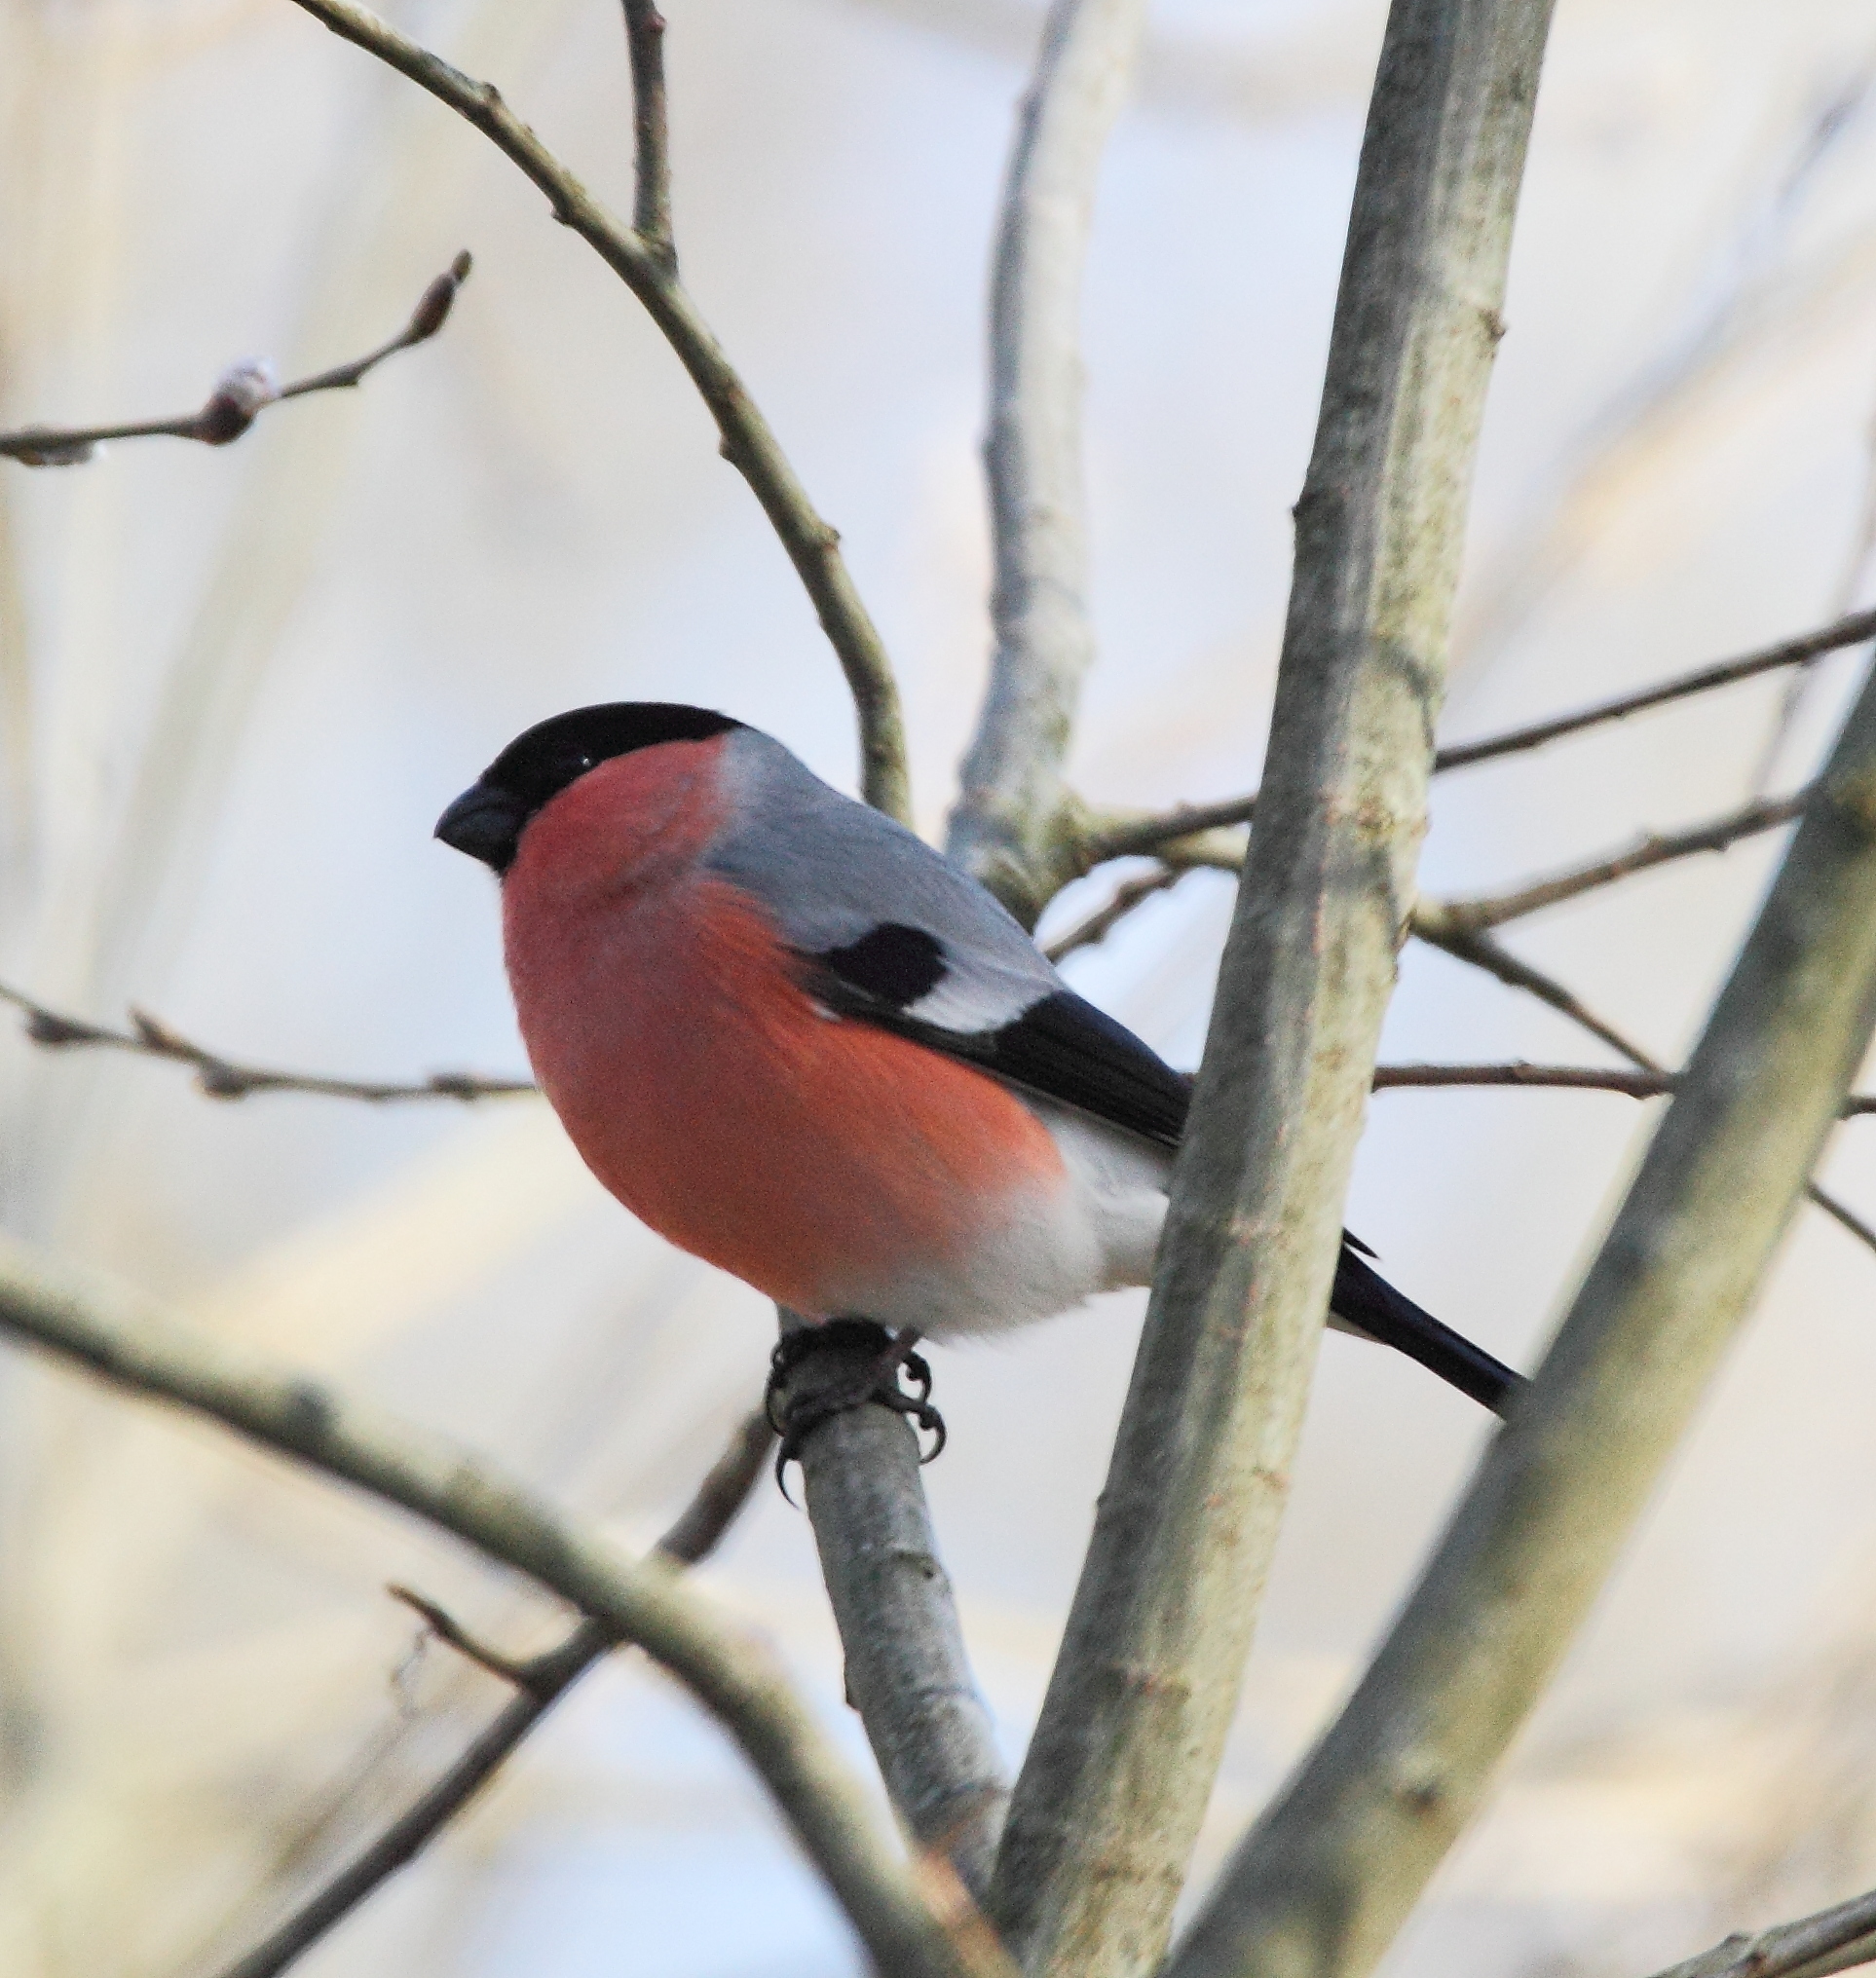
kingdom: Animalia
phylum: Chordata
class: Aves
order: Passeriformes
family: Fringillidae
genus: Pyrrhula
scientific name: Pyrrhula pyrrhula
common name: Eurasian bullfinch
